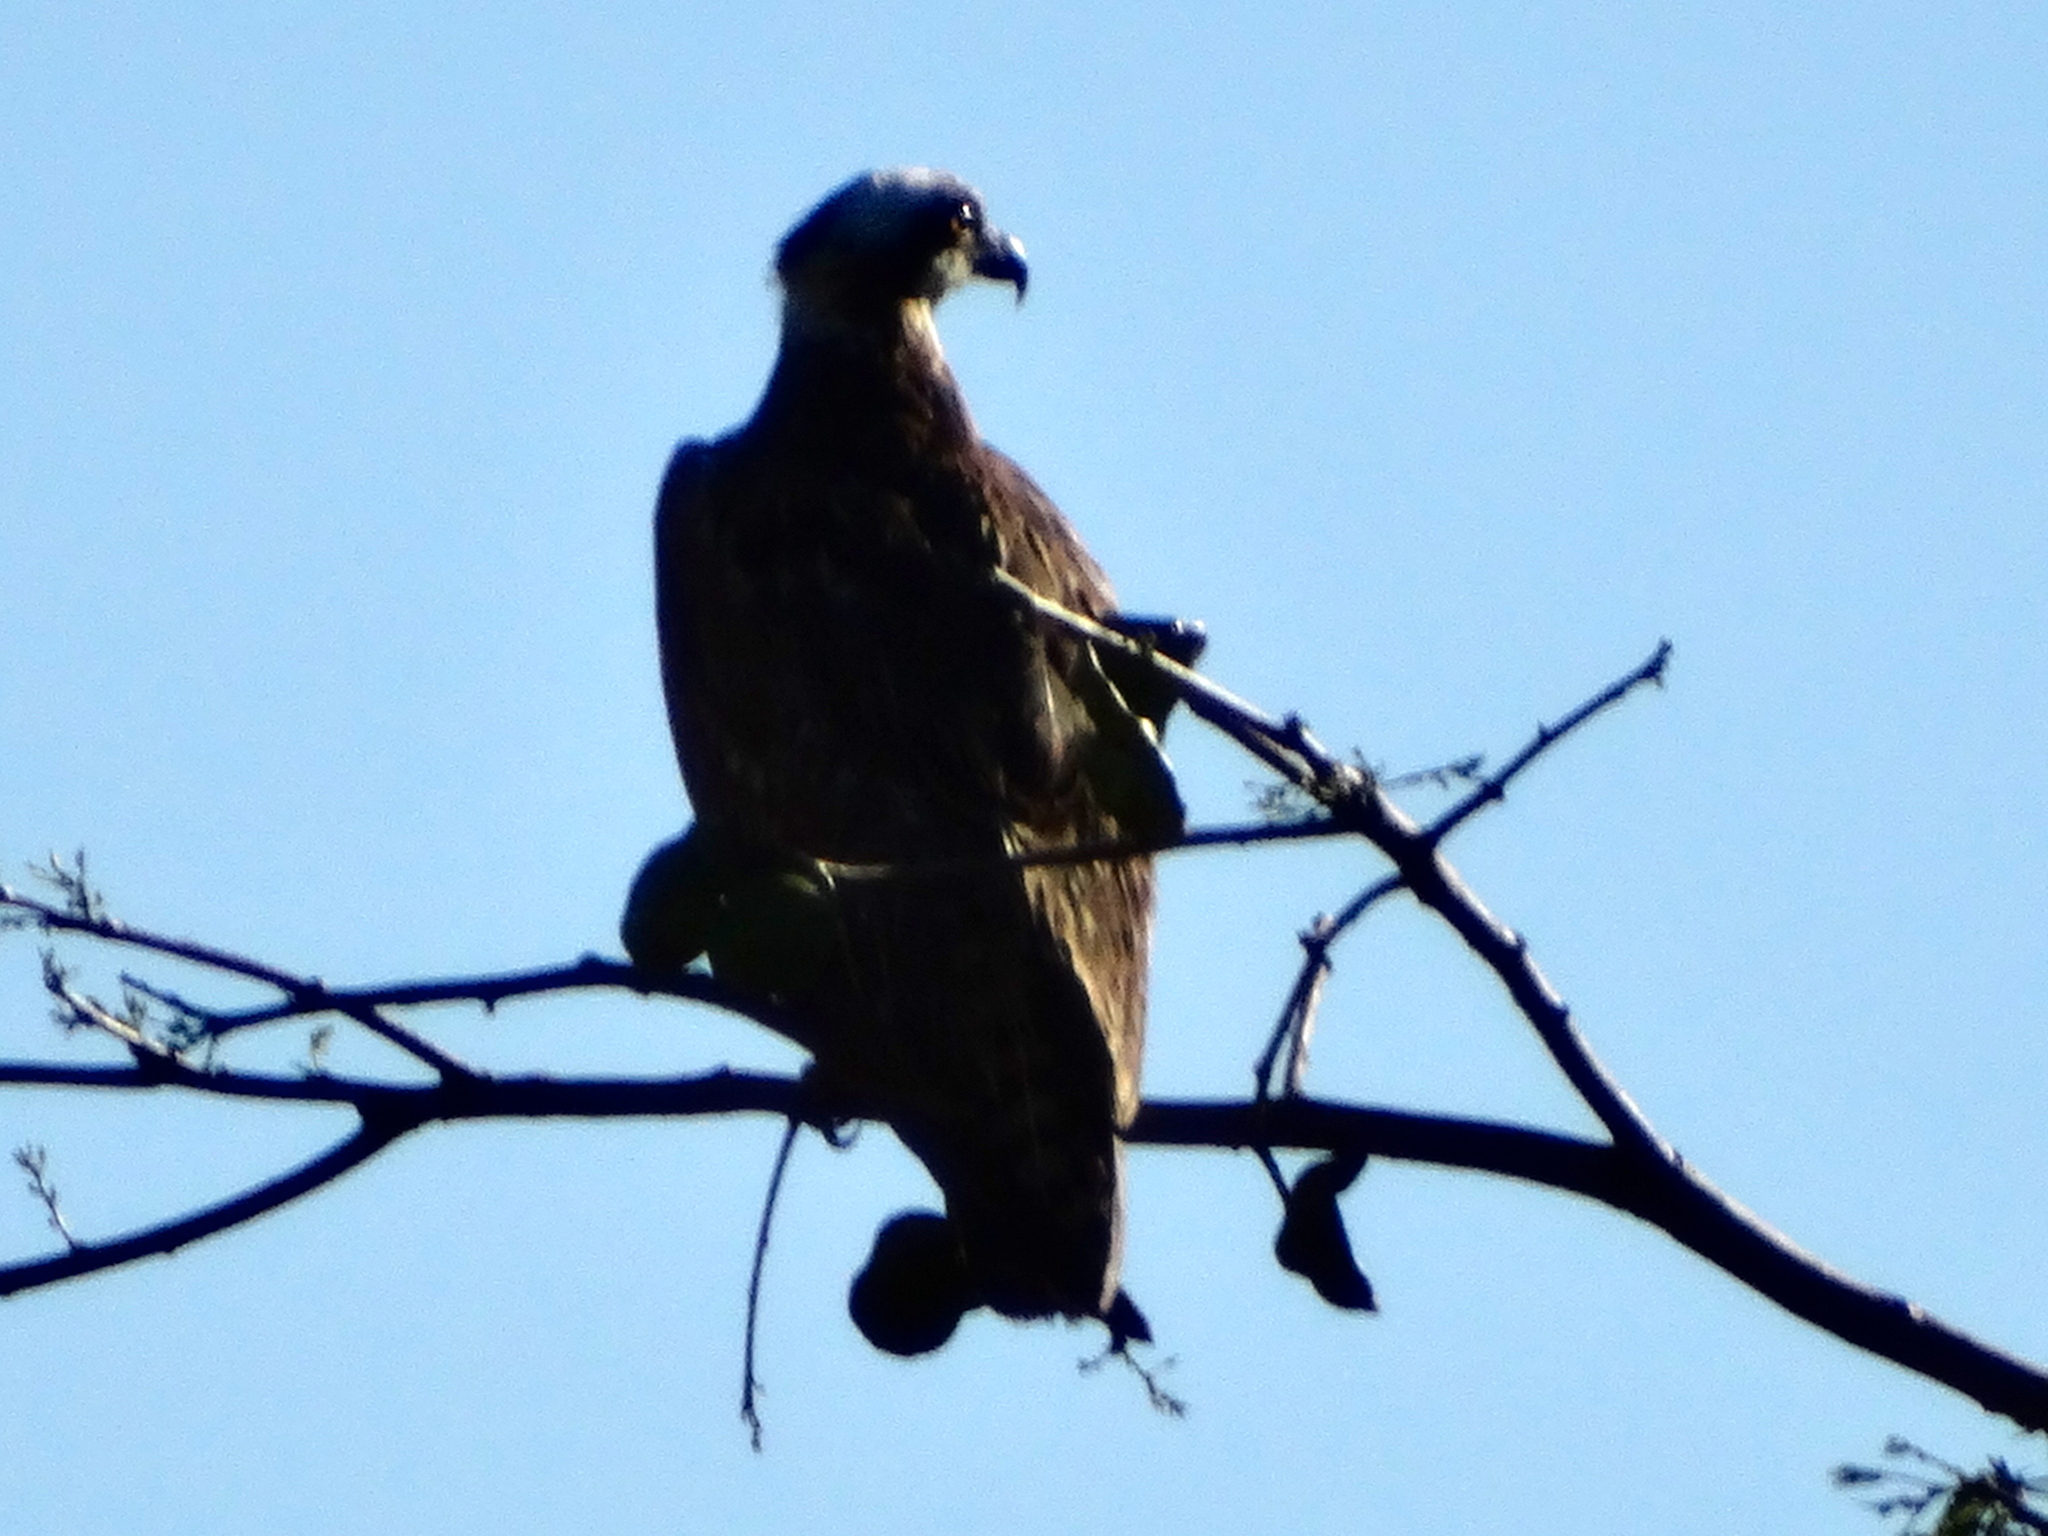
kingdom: Animalia
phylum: Chordata
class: Aves
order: Accipitriformes
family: Pandionidae
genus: Pandion
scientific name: Pandion haliaetus
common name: Osprey
